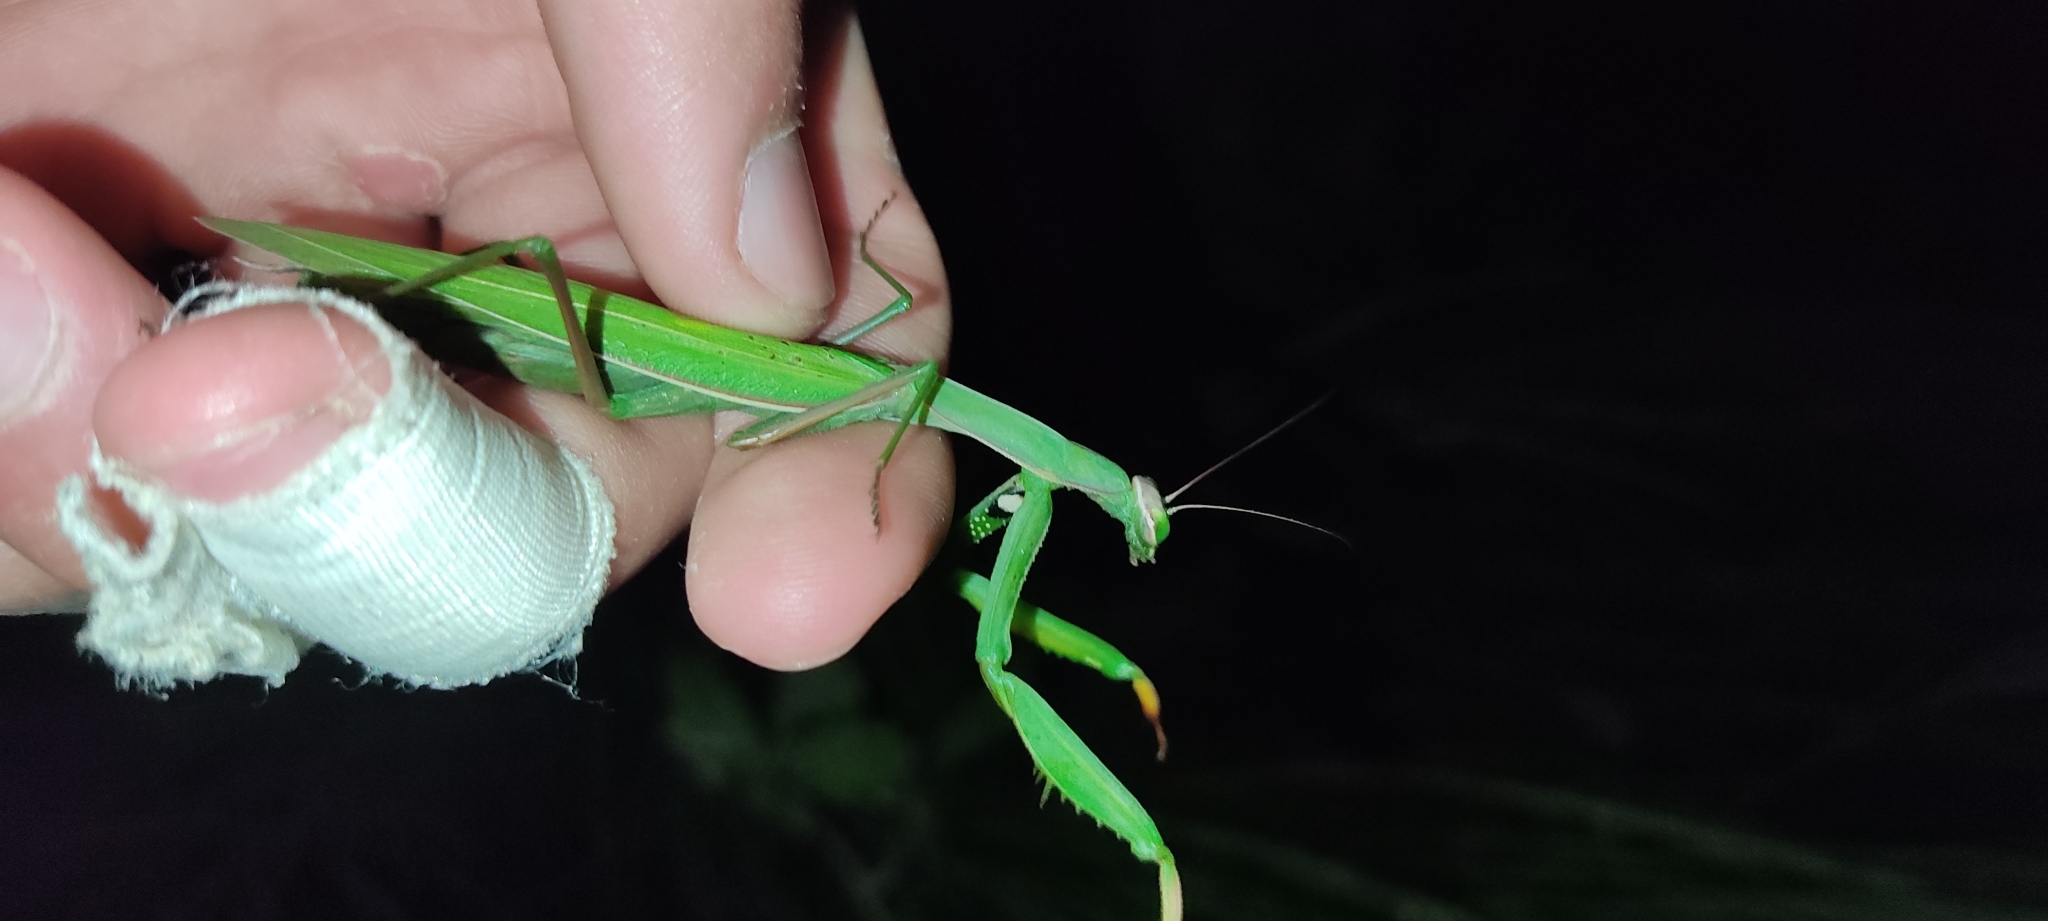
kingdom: Animalia
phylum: Arthropoda
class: Insecta
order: Mantodea
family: Mantidae
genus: Mantis
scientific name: Mantis religiosa
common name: Praying mantis
